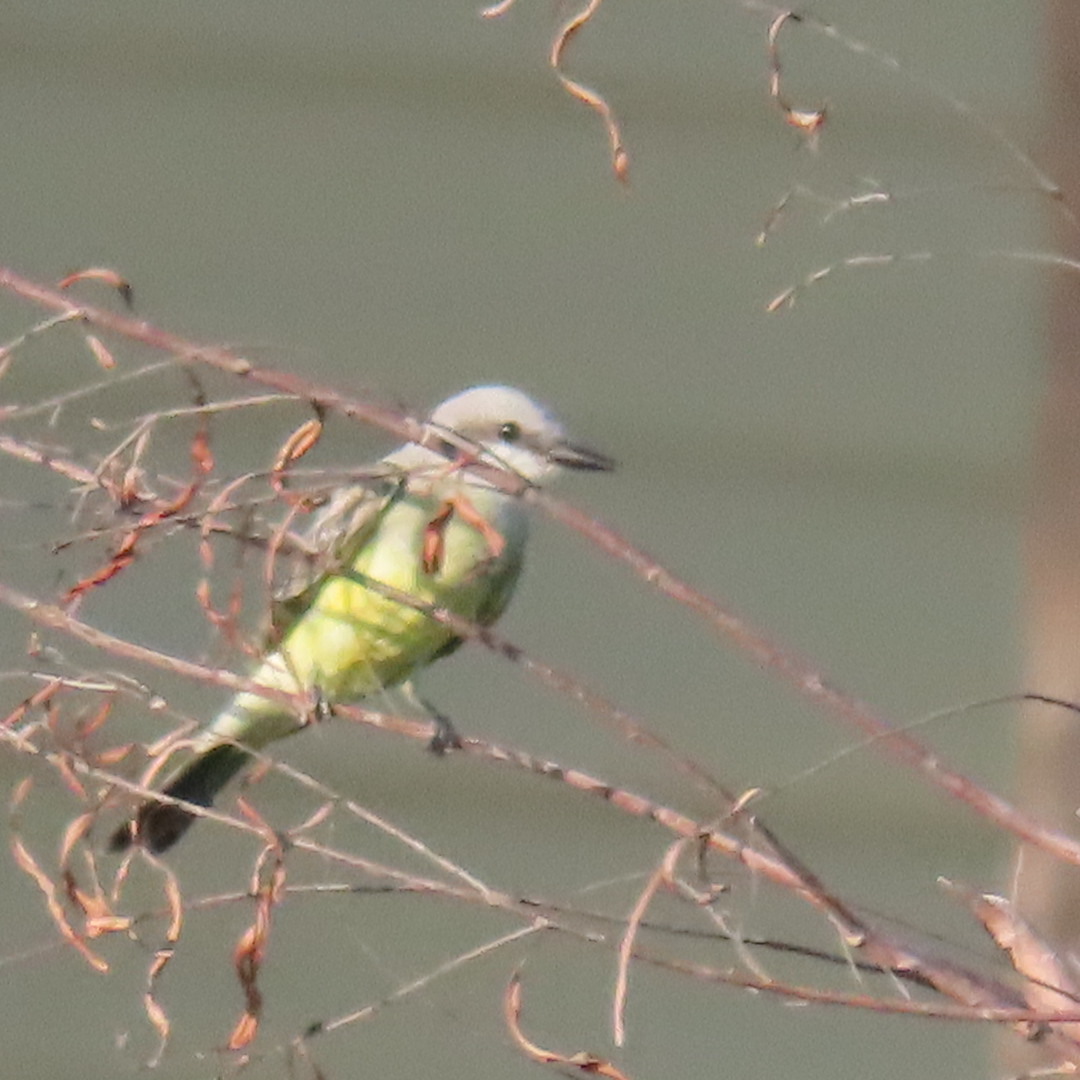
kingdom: Animalia
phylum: Chordata
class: Aves
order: Passeriformes
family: Tyrannidae
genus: Tyrannus
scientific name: Tyrannus
